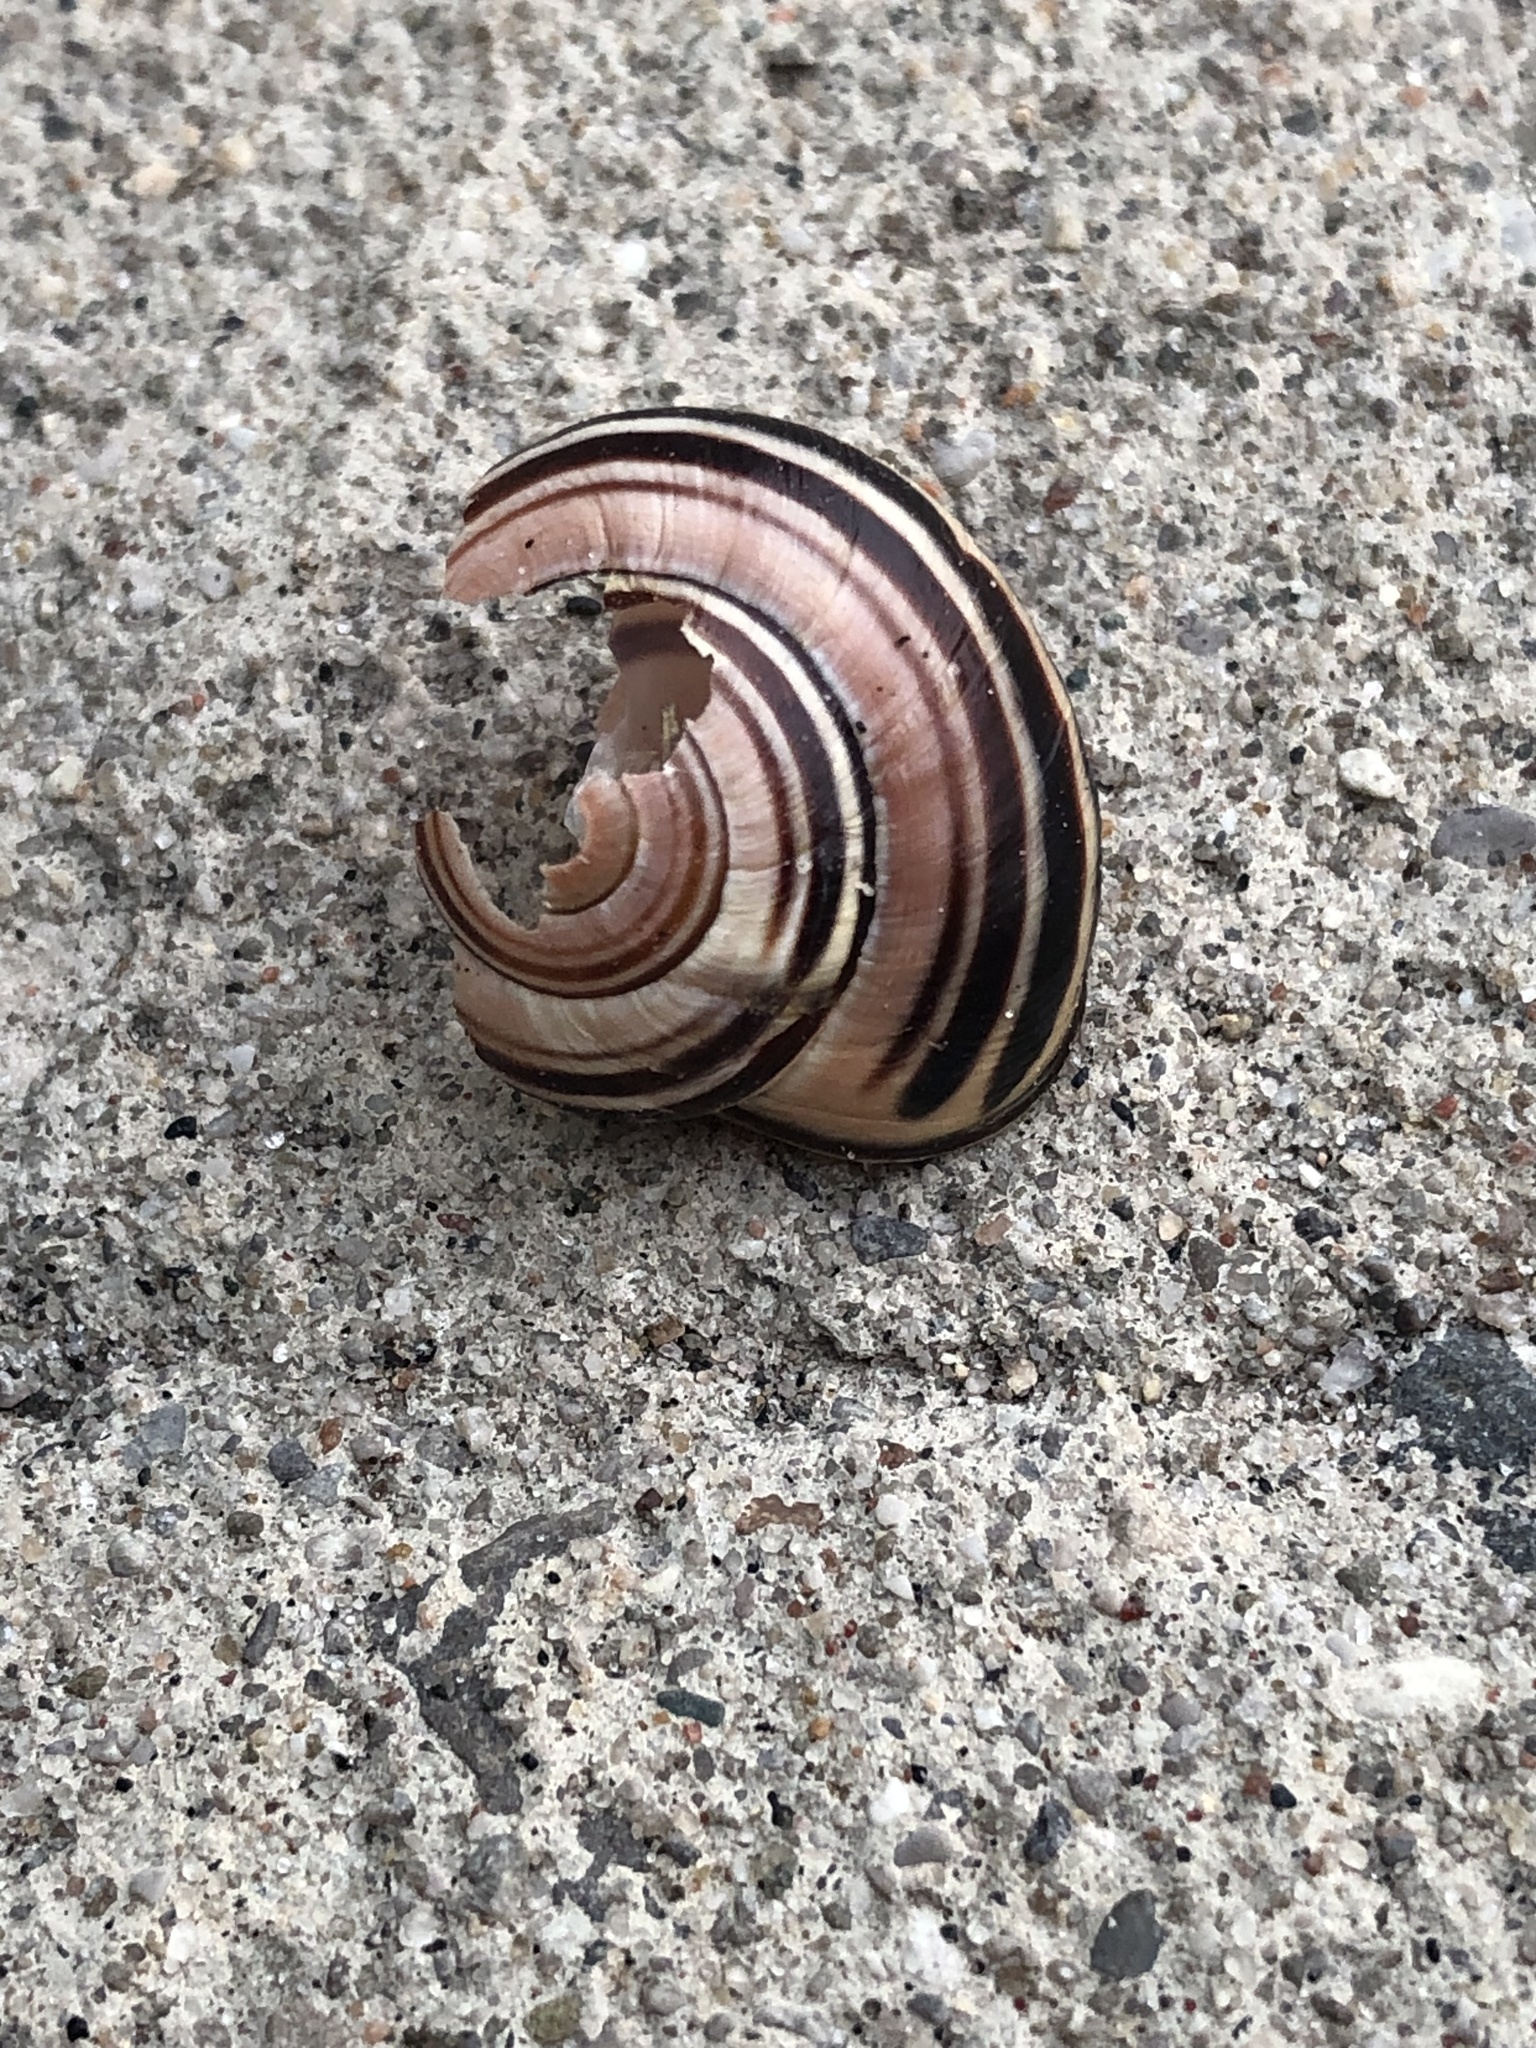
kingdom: Animalia
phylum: Mollusca
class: Gastropoda
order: Stylommatophora
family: Helicidae
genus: Cepaea
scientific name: Cepaea nemoralis
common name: Grovesnail
